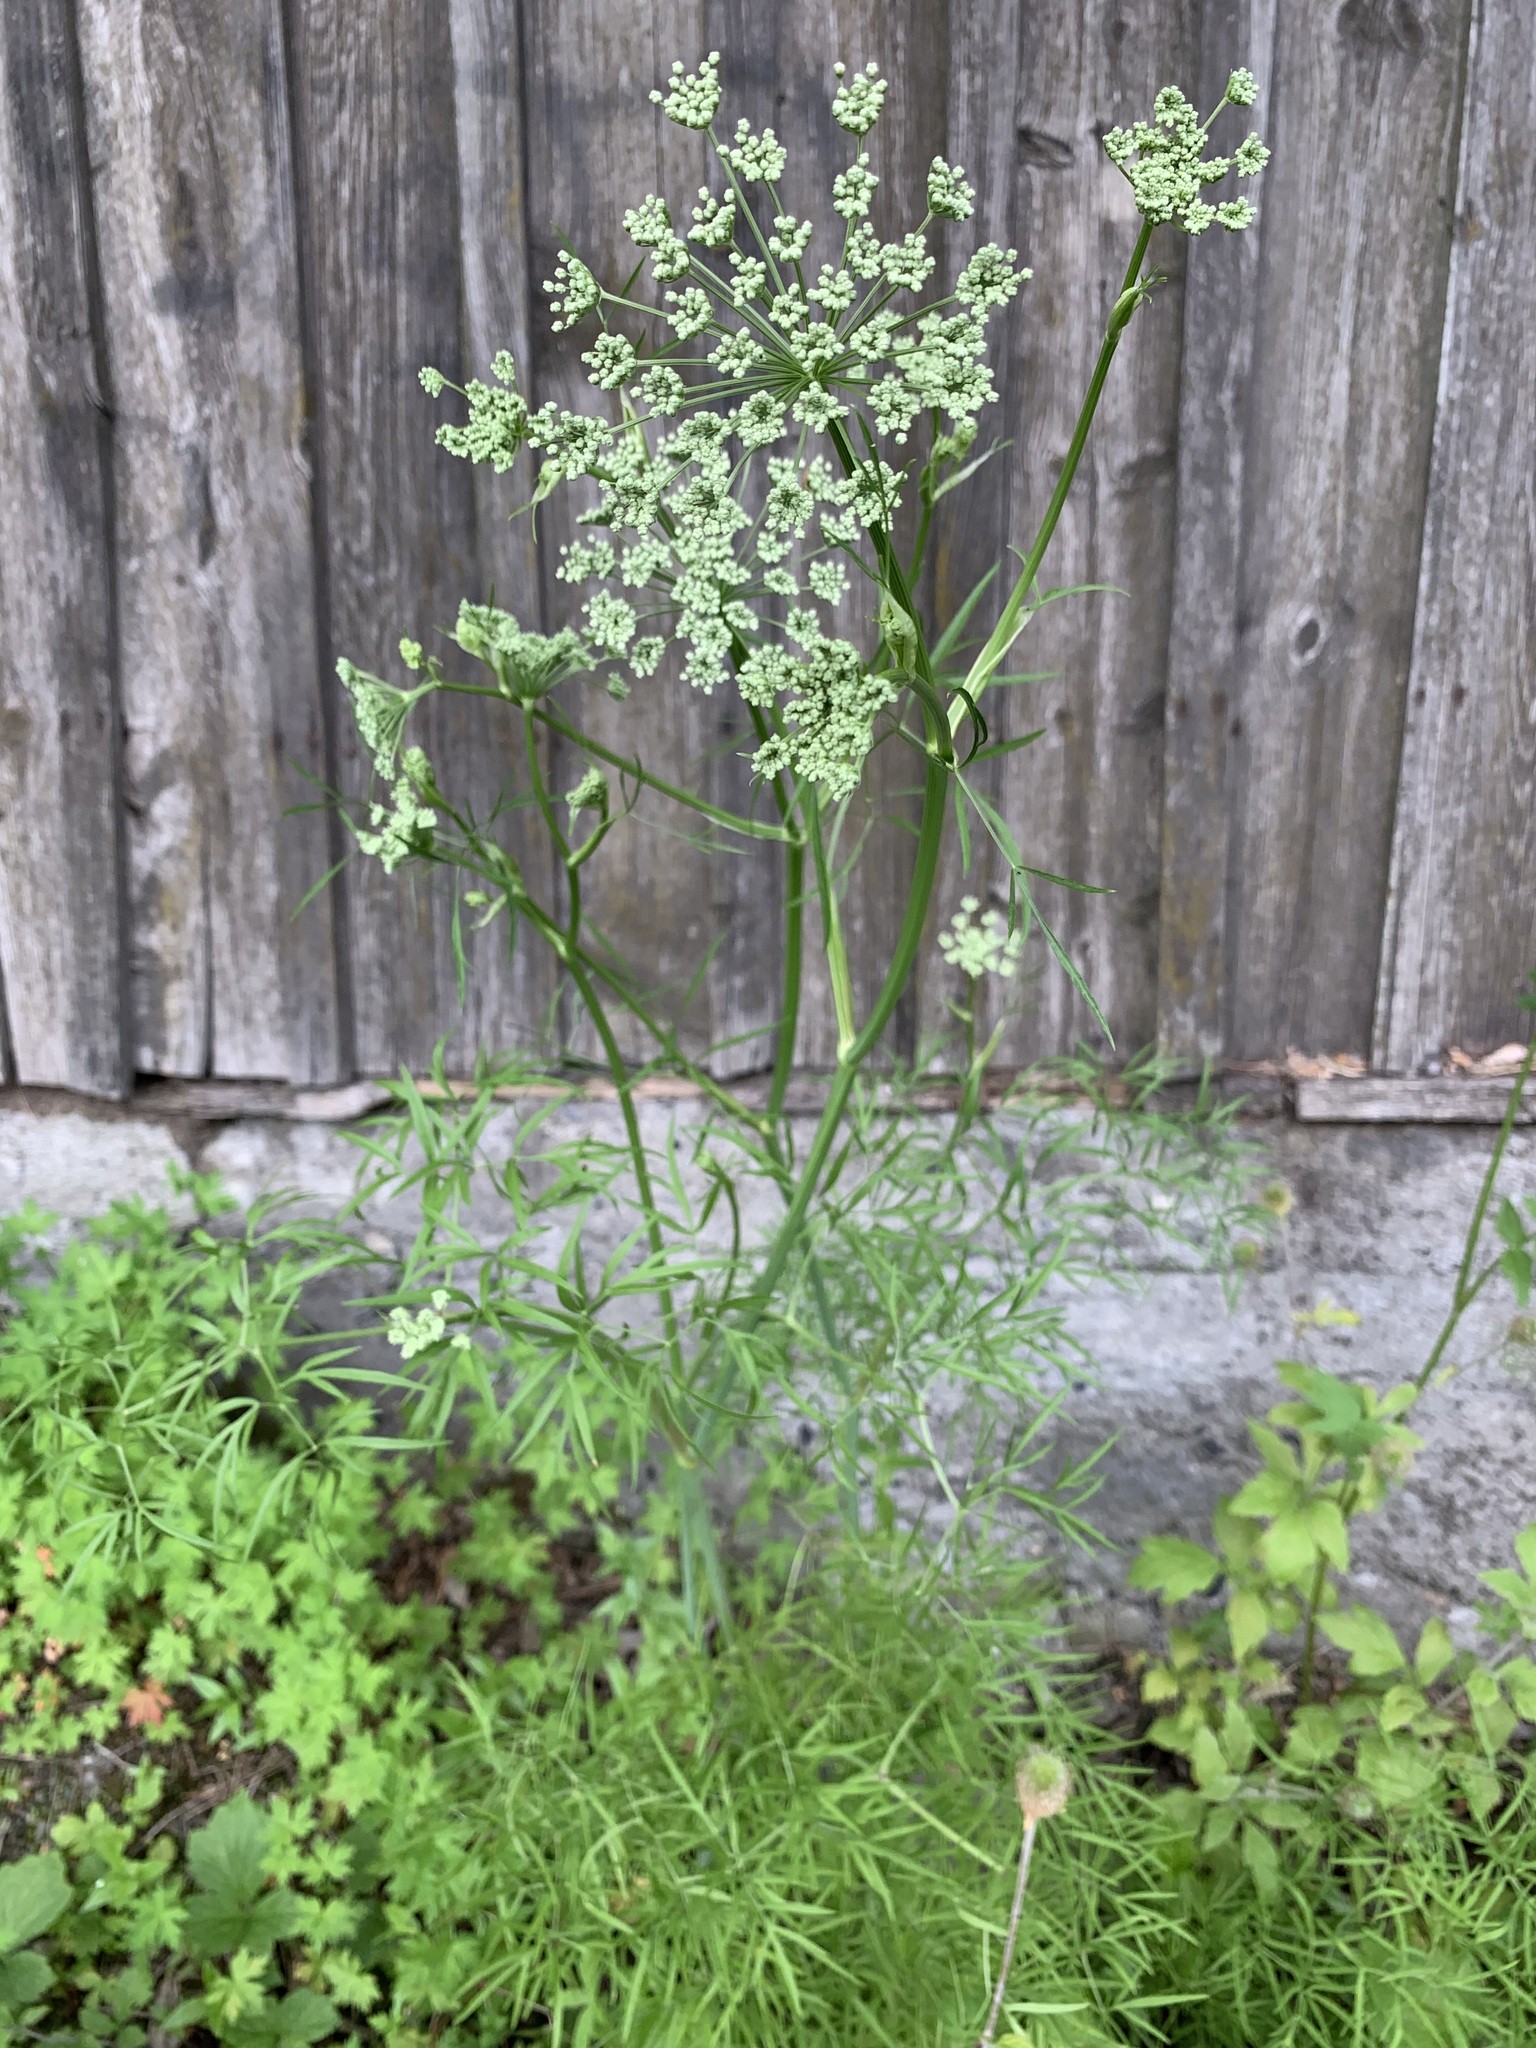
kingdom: Plantae
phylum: Tracheophyta
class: Magnoliopsida
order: Apiales
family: Apiaceae
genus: Cenolophium
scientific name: Cenolophium fischeri
